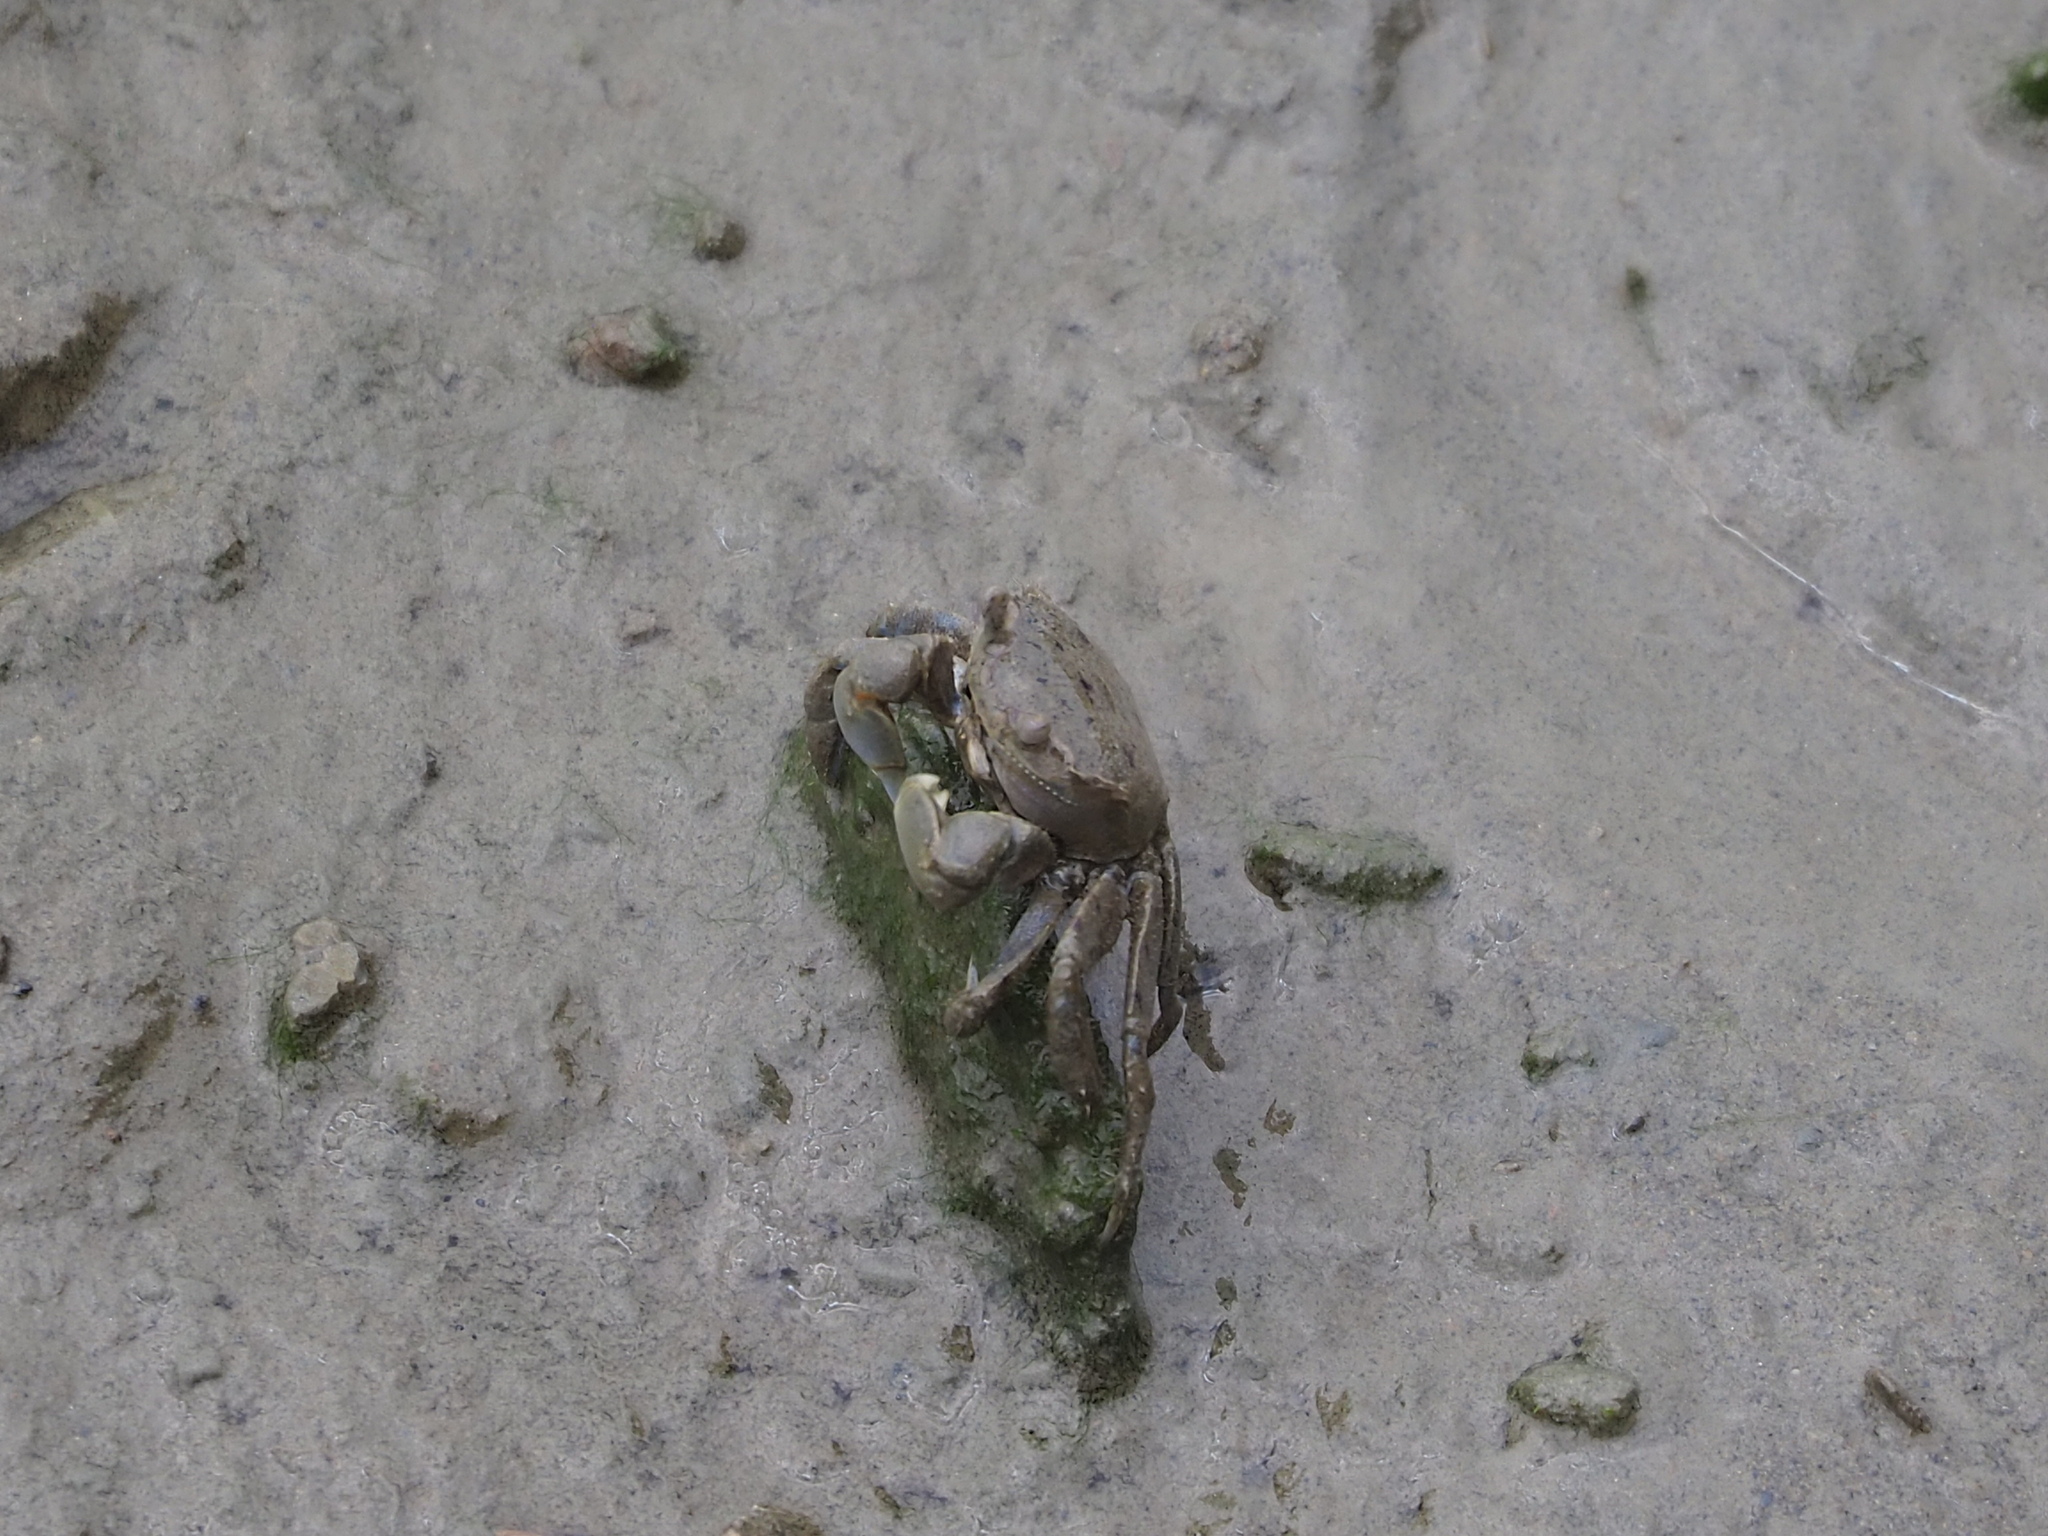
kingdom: Animalia
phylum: Arthropoda
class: Malacostraca
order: Decapoda
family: Varunidae
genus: Helicana
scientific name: Helicana doerjesi
